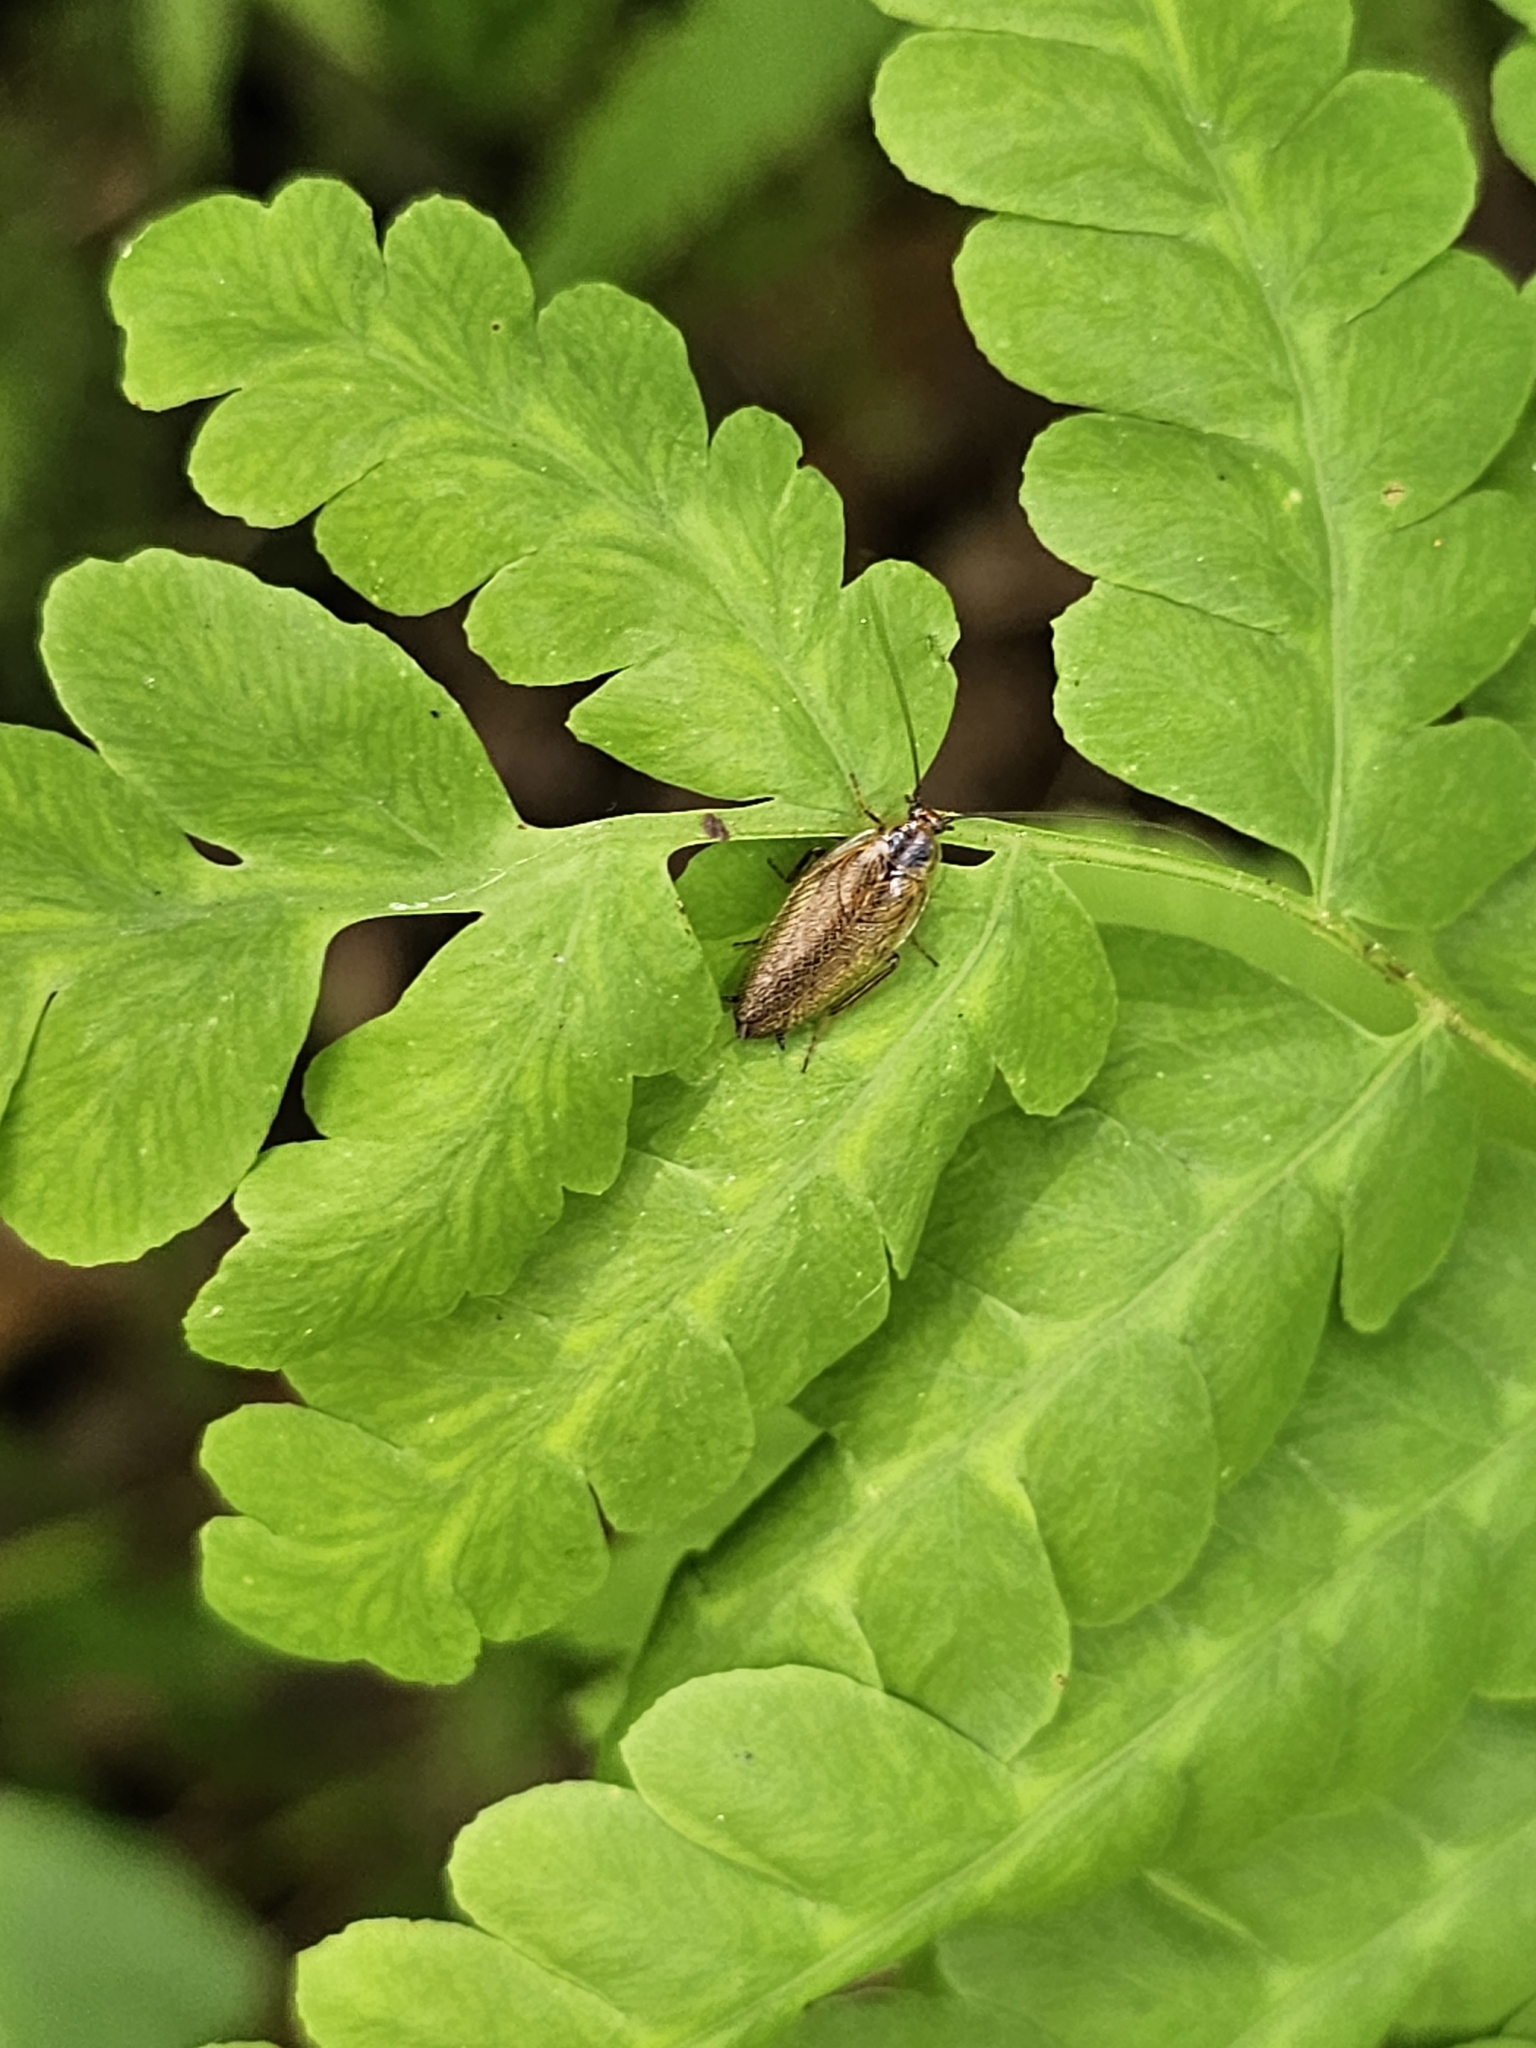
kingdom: Animalia
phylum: Arthropoda
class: Insecta
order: Blattodea
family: Ectobiidae
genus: Ectobius
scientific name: Ectobius lapponicus
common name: Dusky cockroach
